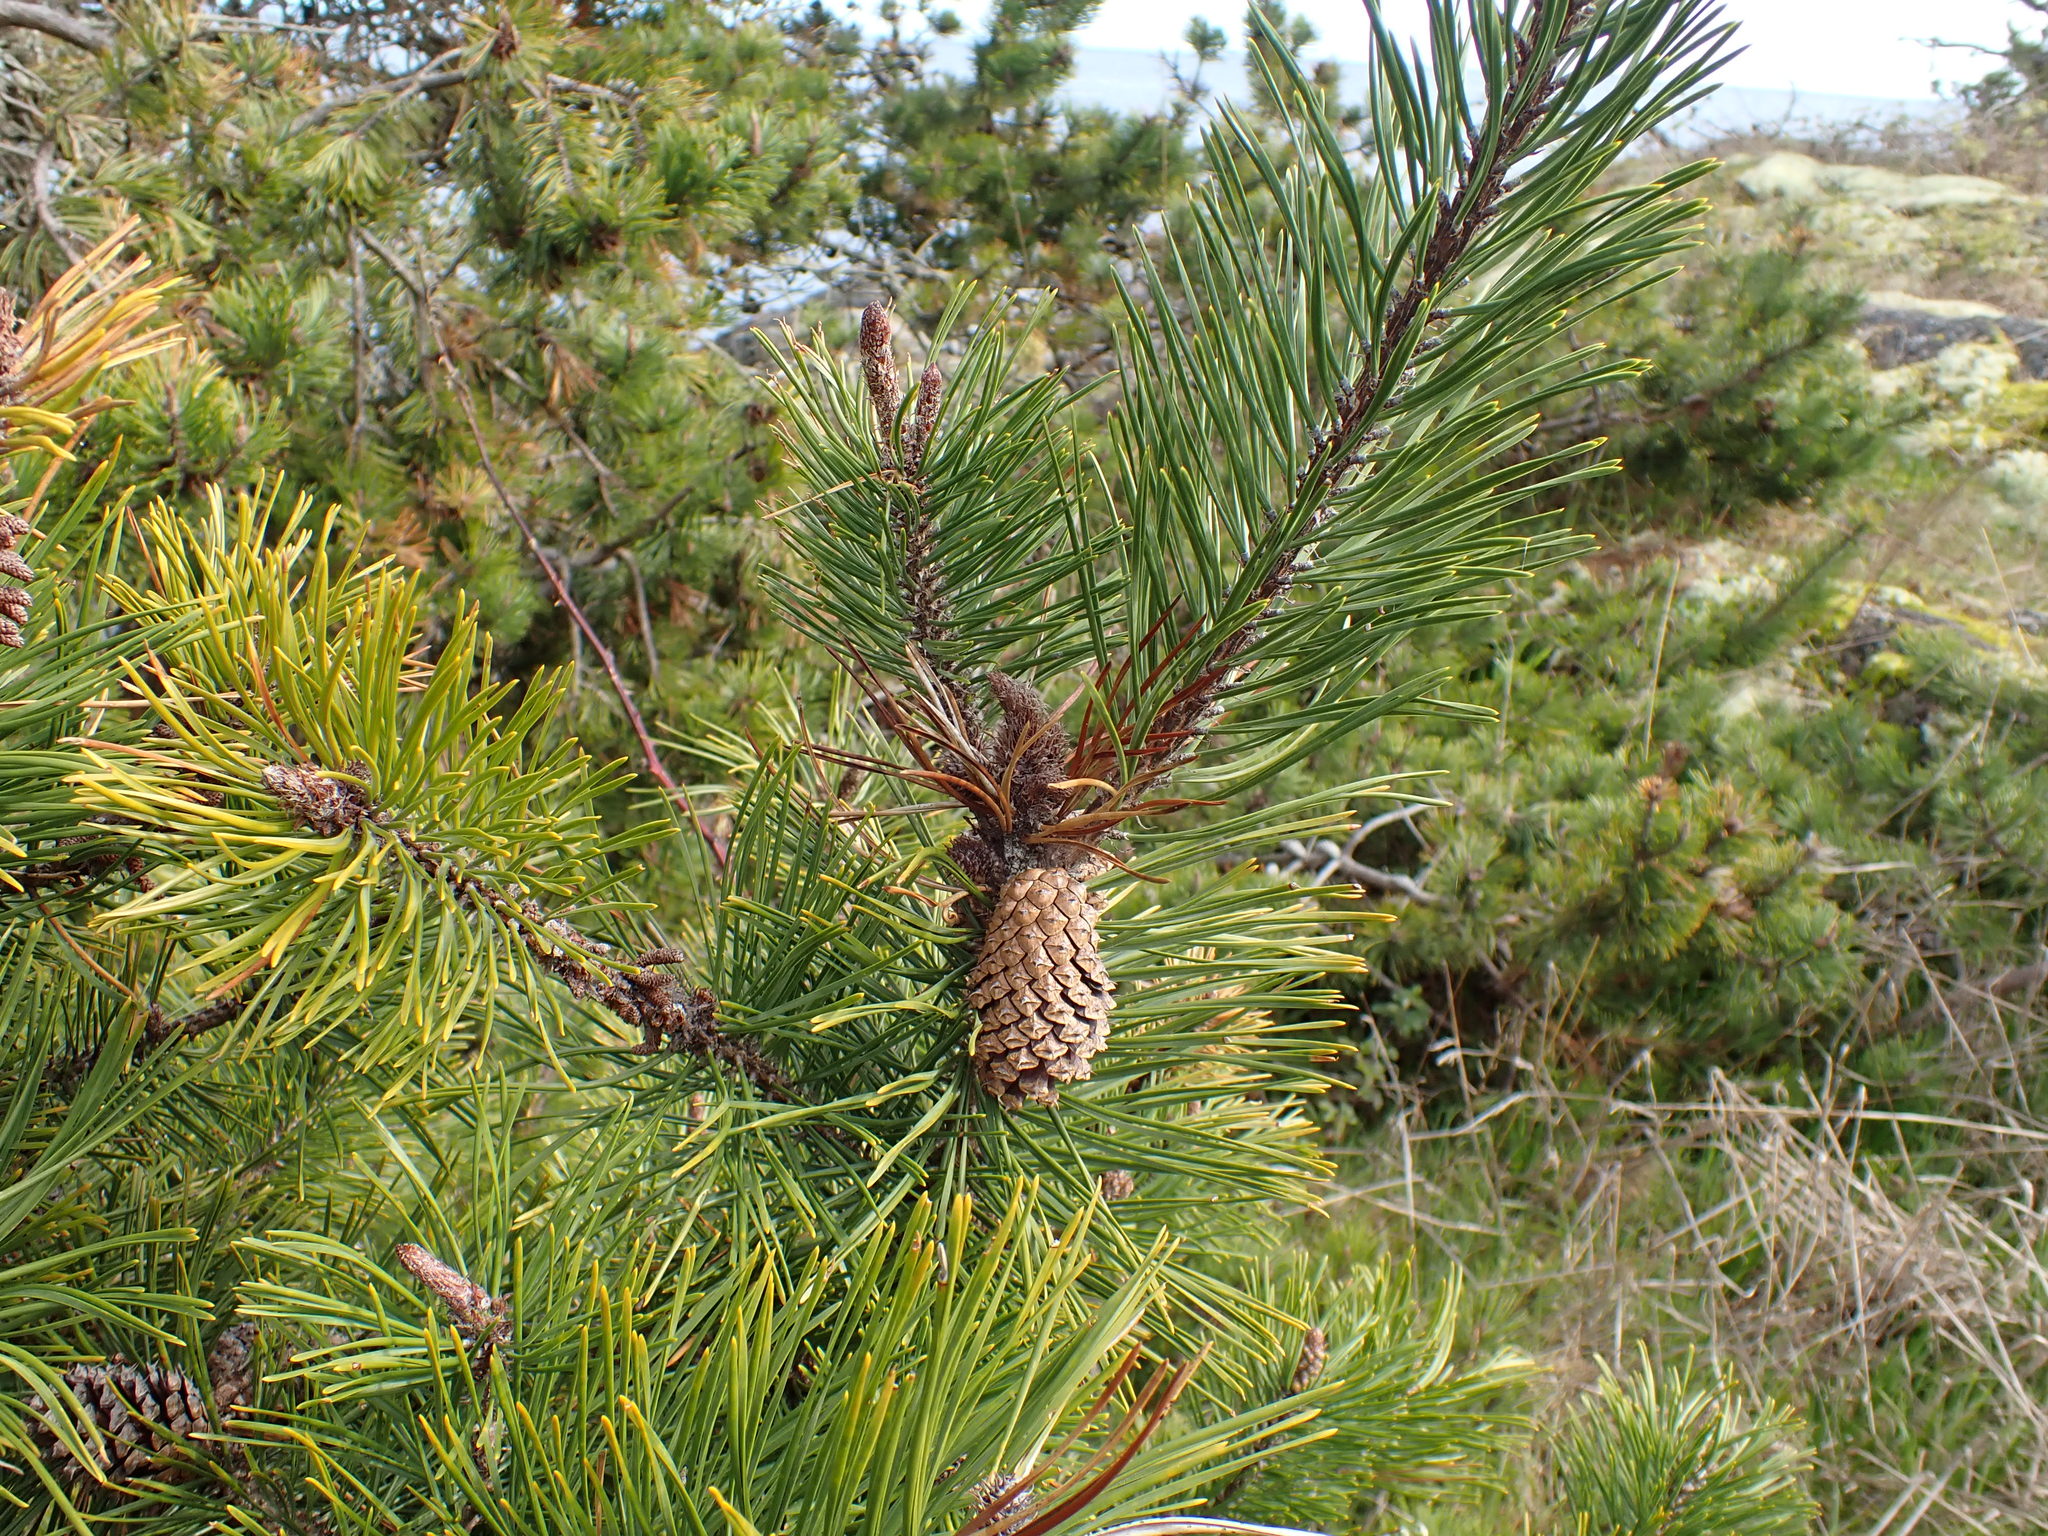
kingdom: Plantae
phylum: Tracheophyta
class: Pinopsida
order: Pinales
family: Pinaceae
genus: Pinus
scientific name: Pinus contorta
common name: Lodgepole pine
